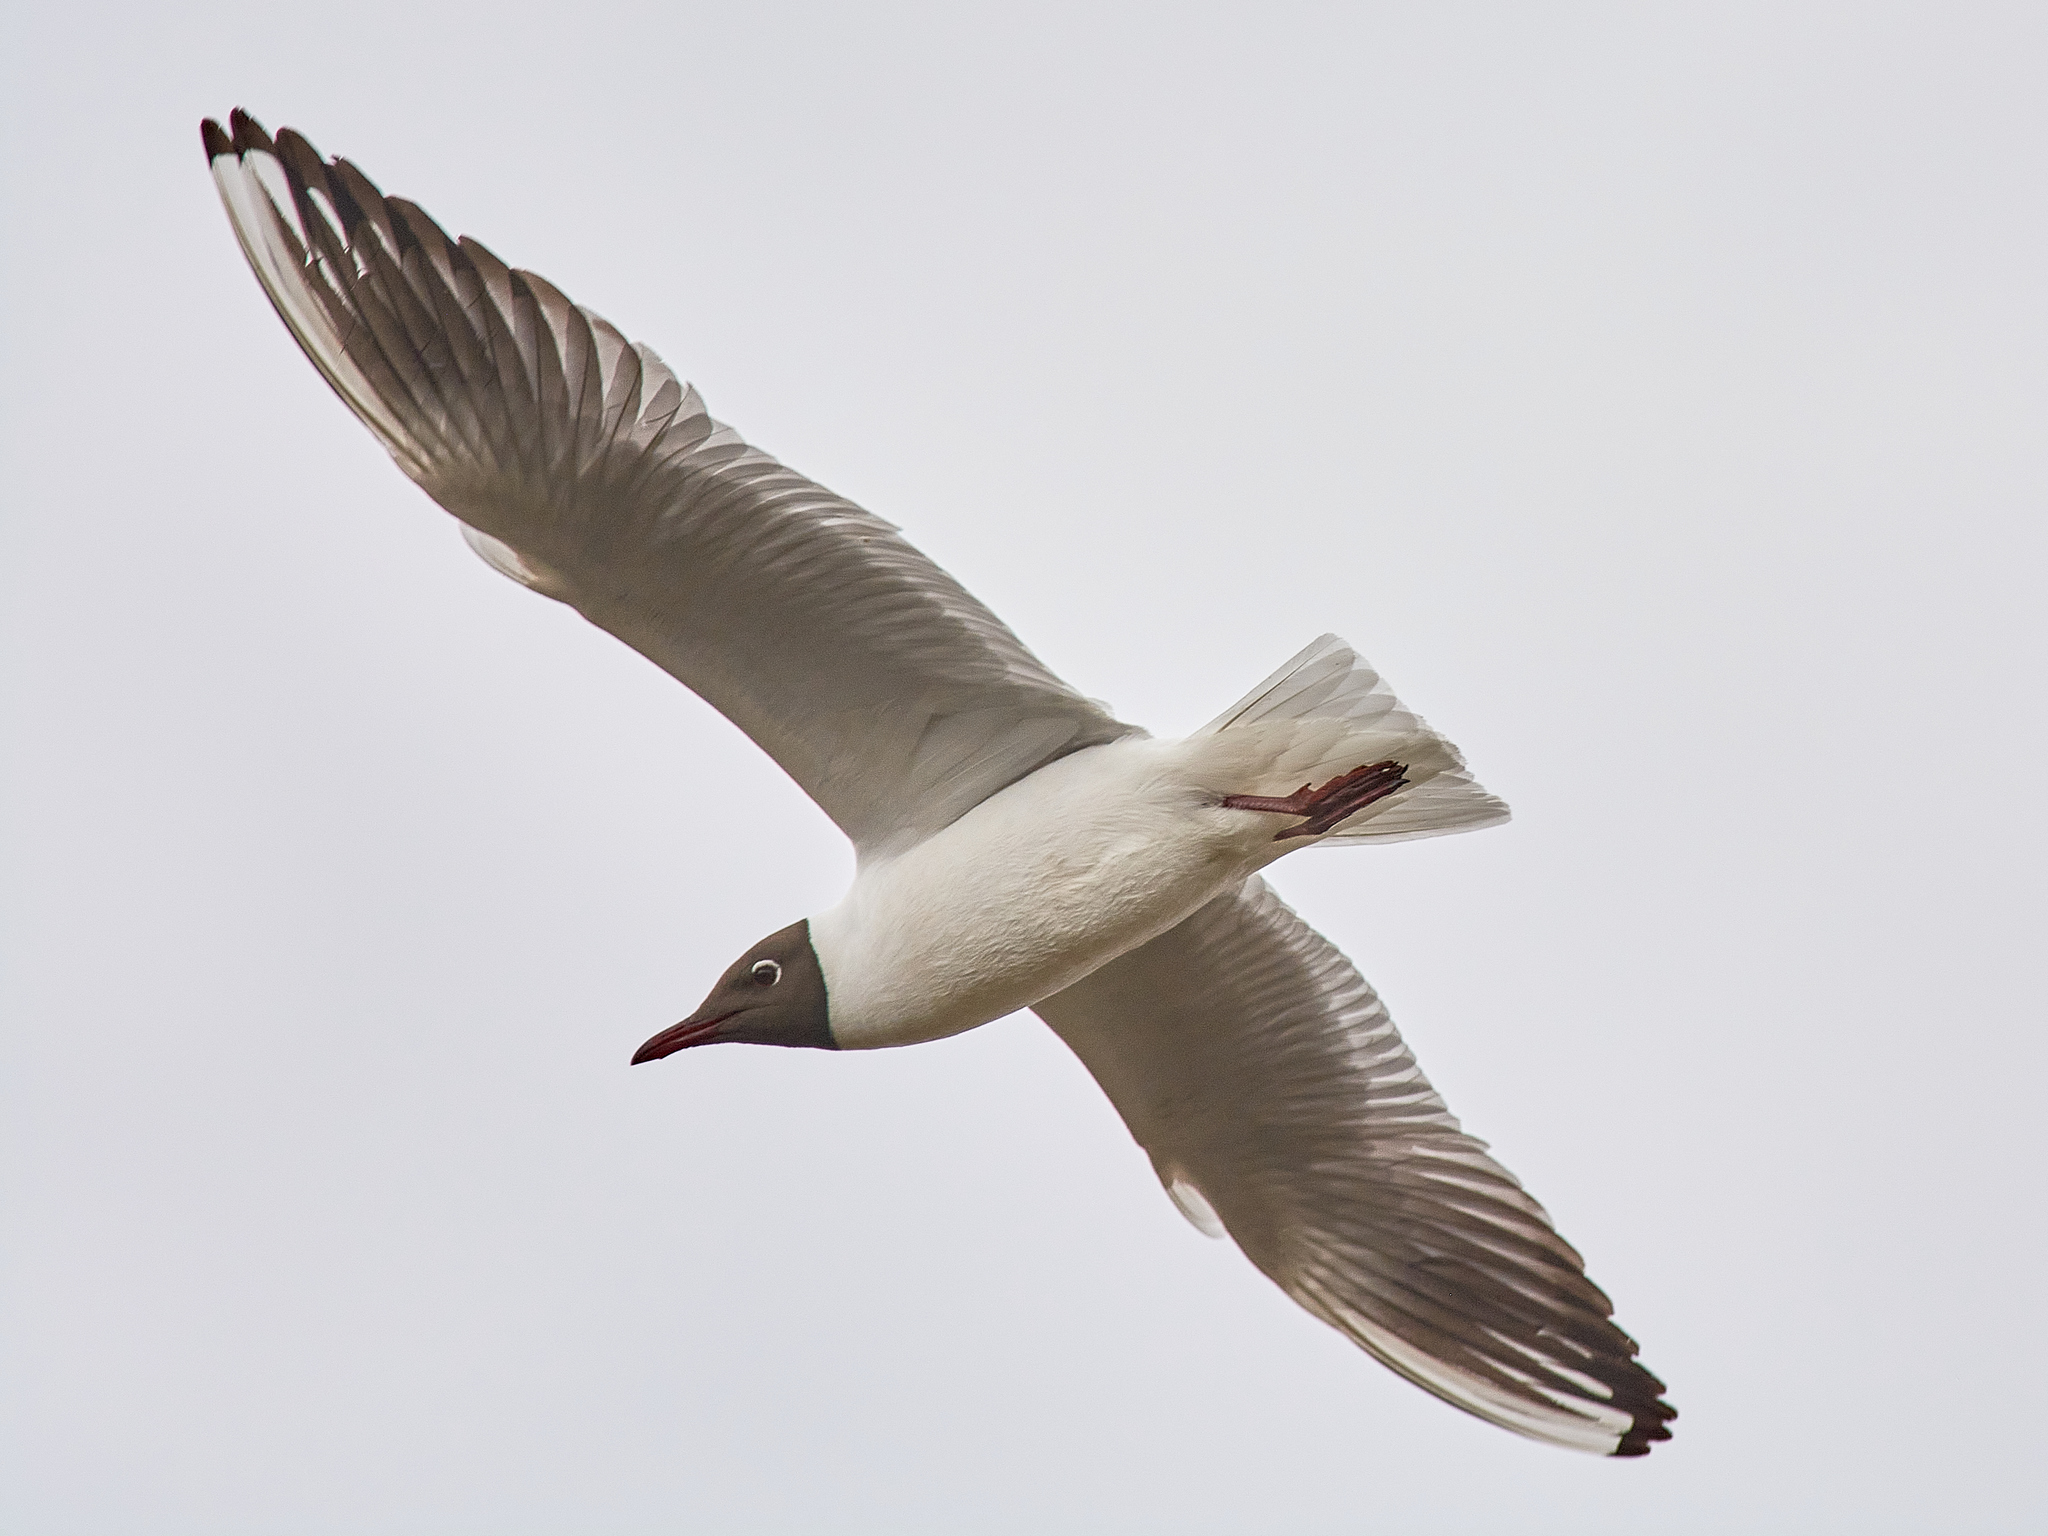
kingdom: Animalia
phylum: Chordata
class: Aves
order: Charadriiformes
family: Laridae
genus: Chroicocephalus
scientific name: Chroicocephalus ridibundus
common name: Black-headed gull
